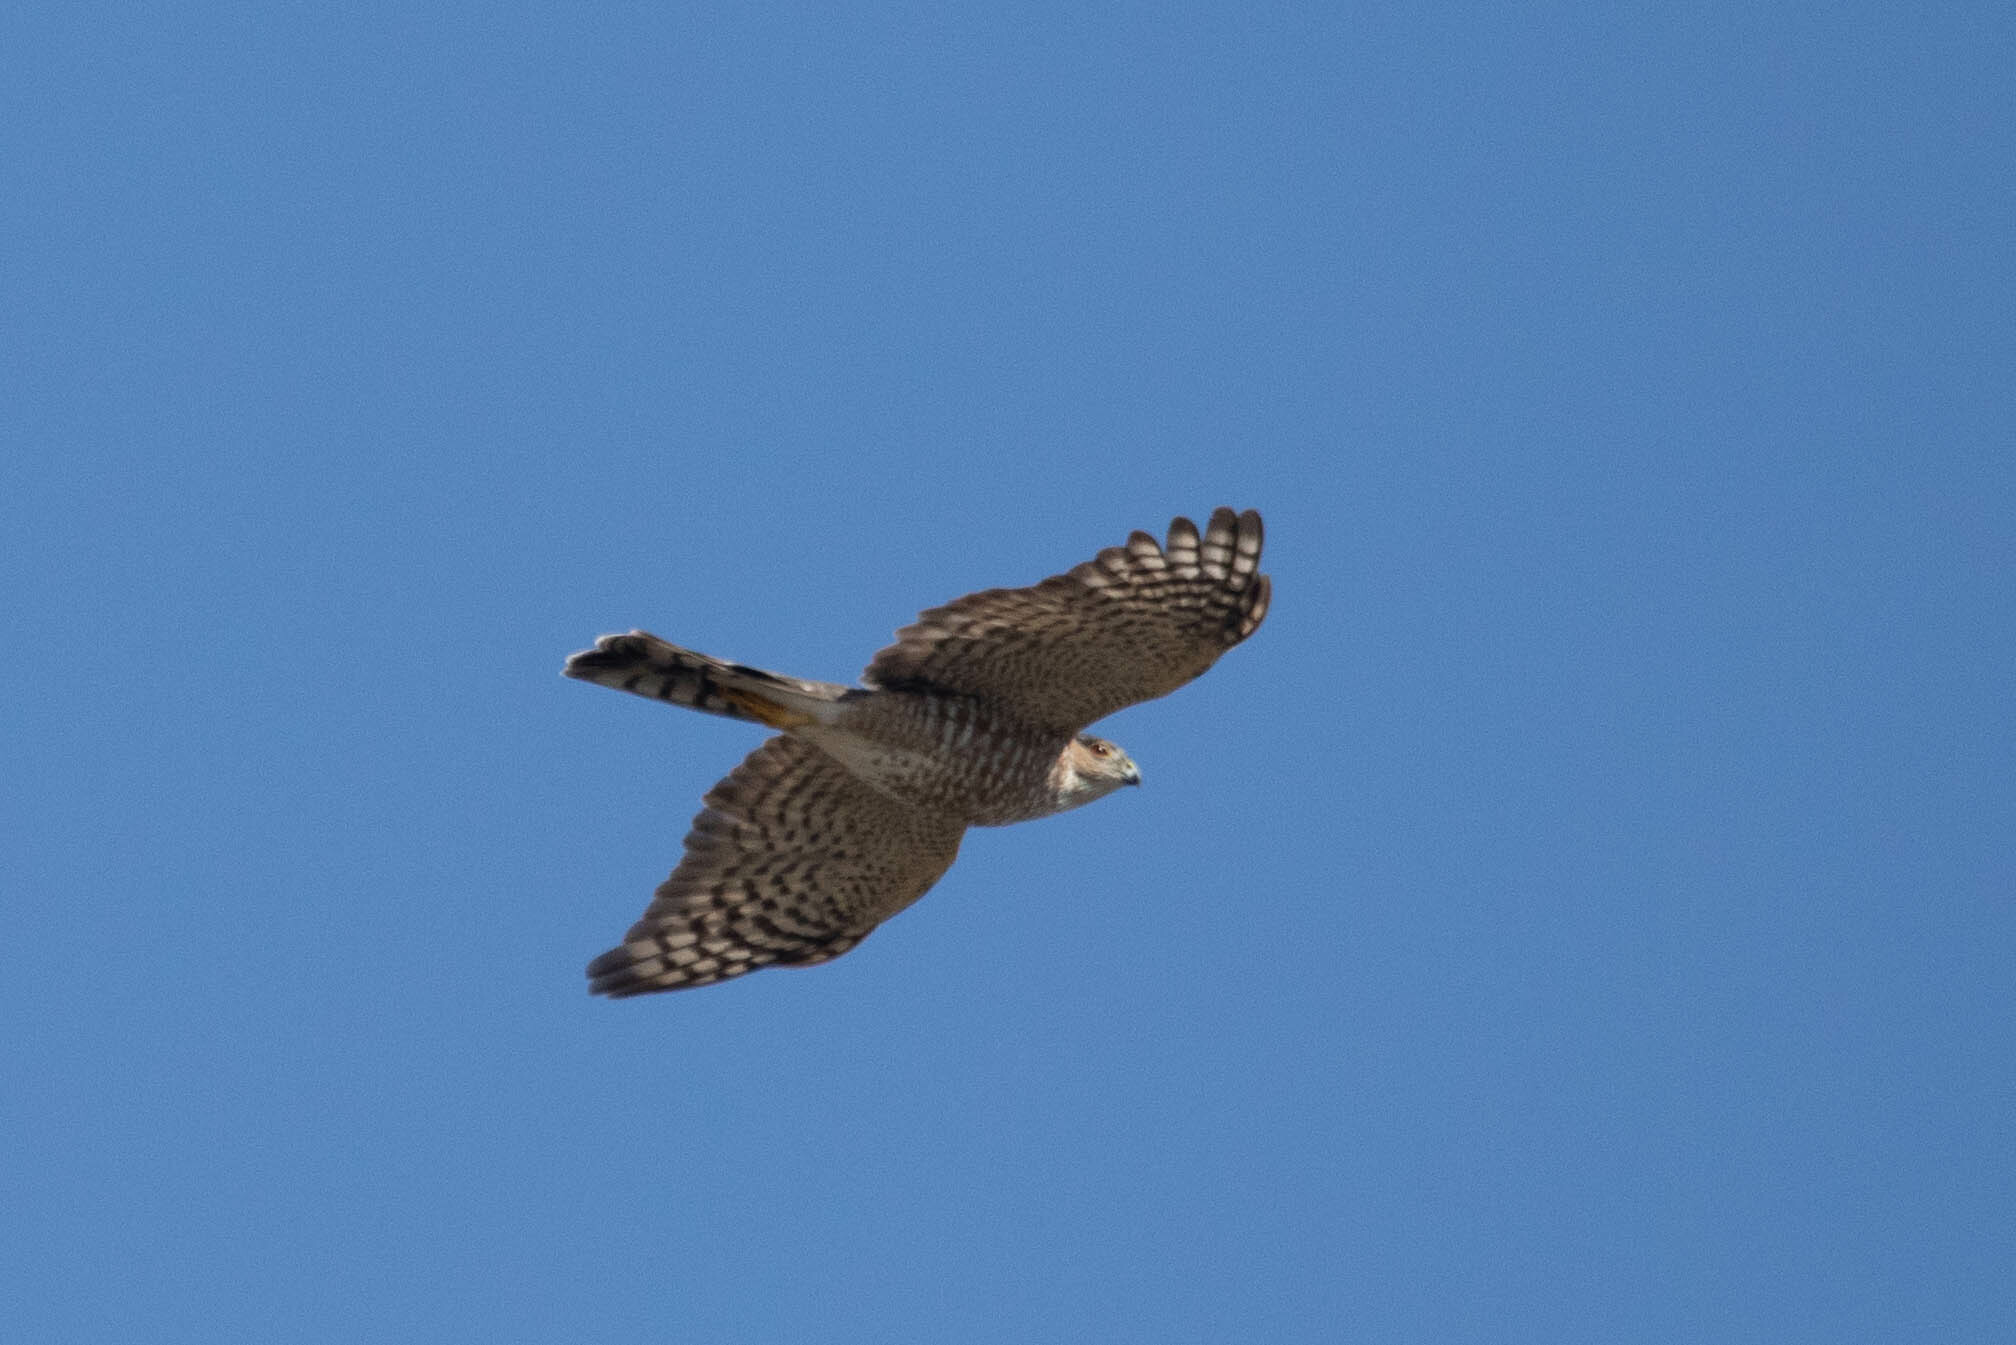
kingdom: Animalia
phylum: Chordata
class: Aves
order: Accipitriformes
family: Accipitridae
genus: Accipiter
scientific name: Accipiter striatus
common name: Sharp-shinned hawk
